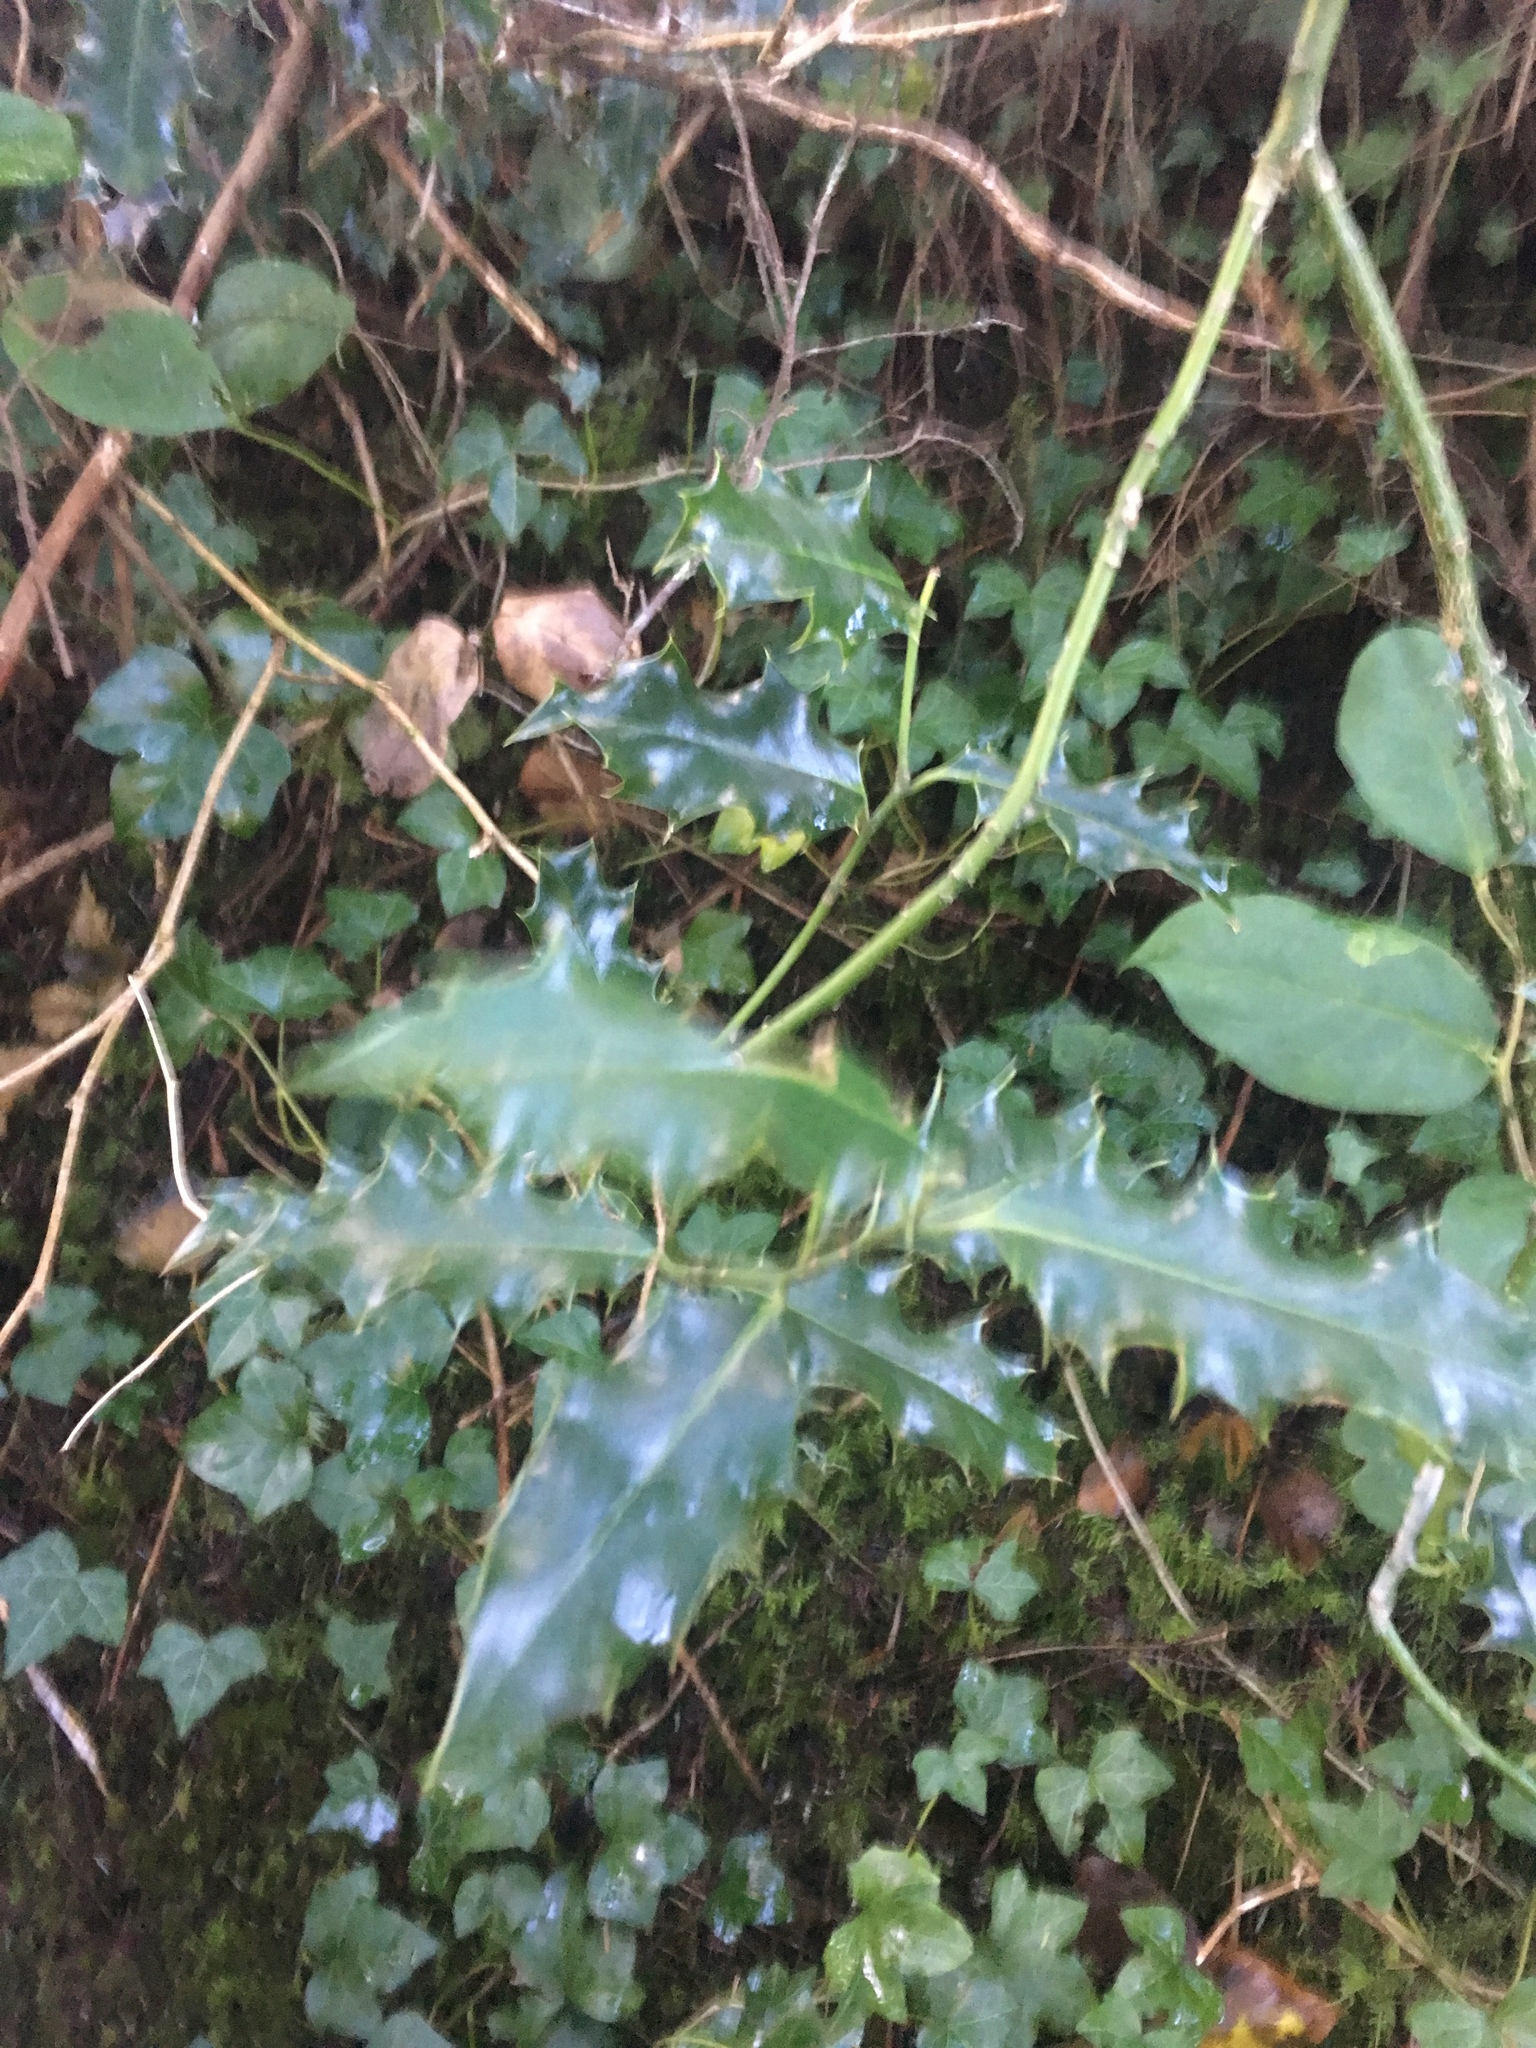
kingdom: Plantae
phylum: Tracheophyta
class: Magnoliopsida
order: Aquifoliales
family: Aquifoliaceae
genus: Ilex
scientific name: Ilex aquifolium
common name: English holly
